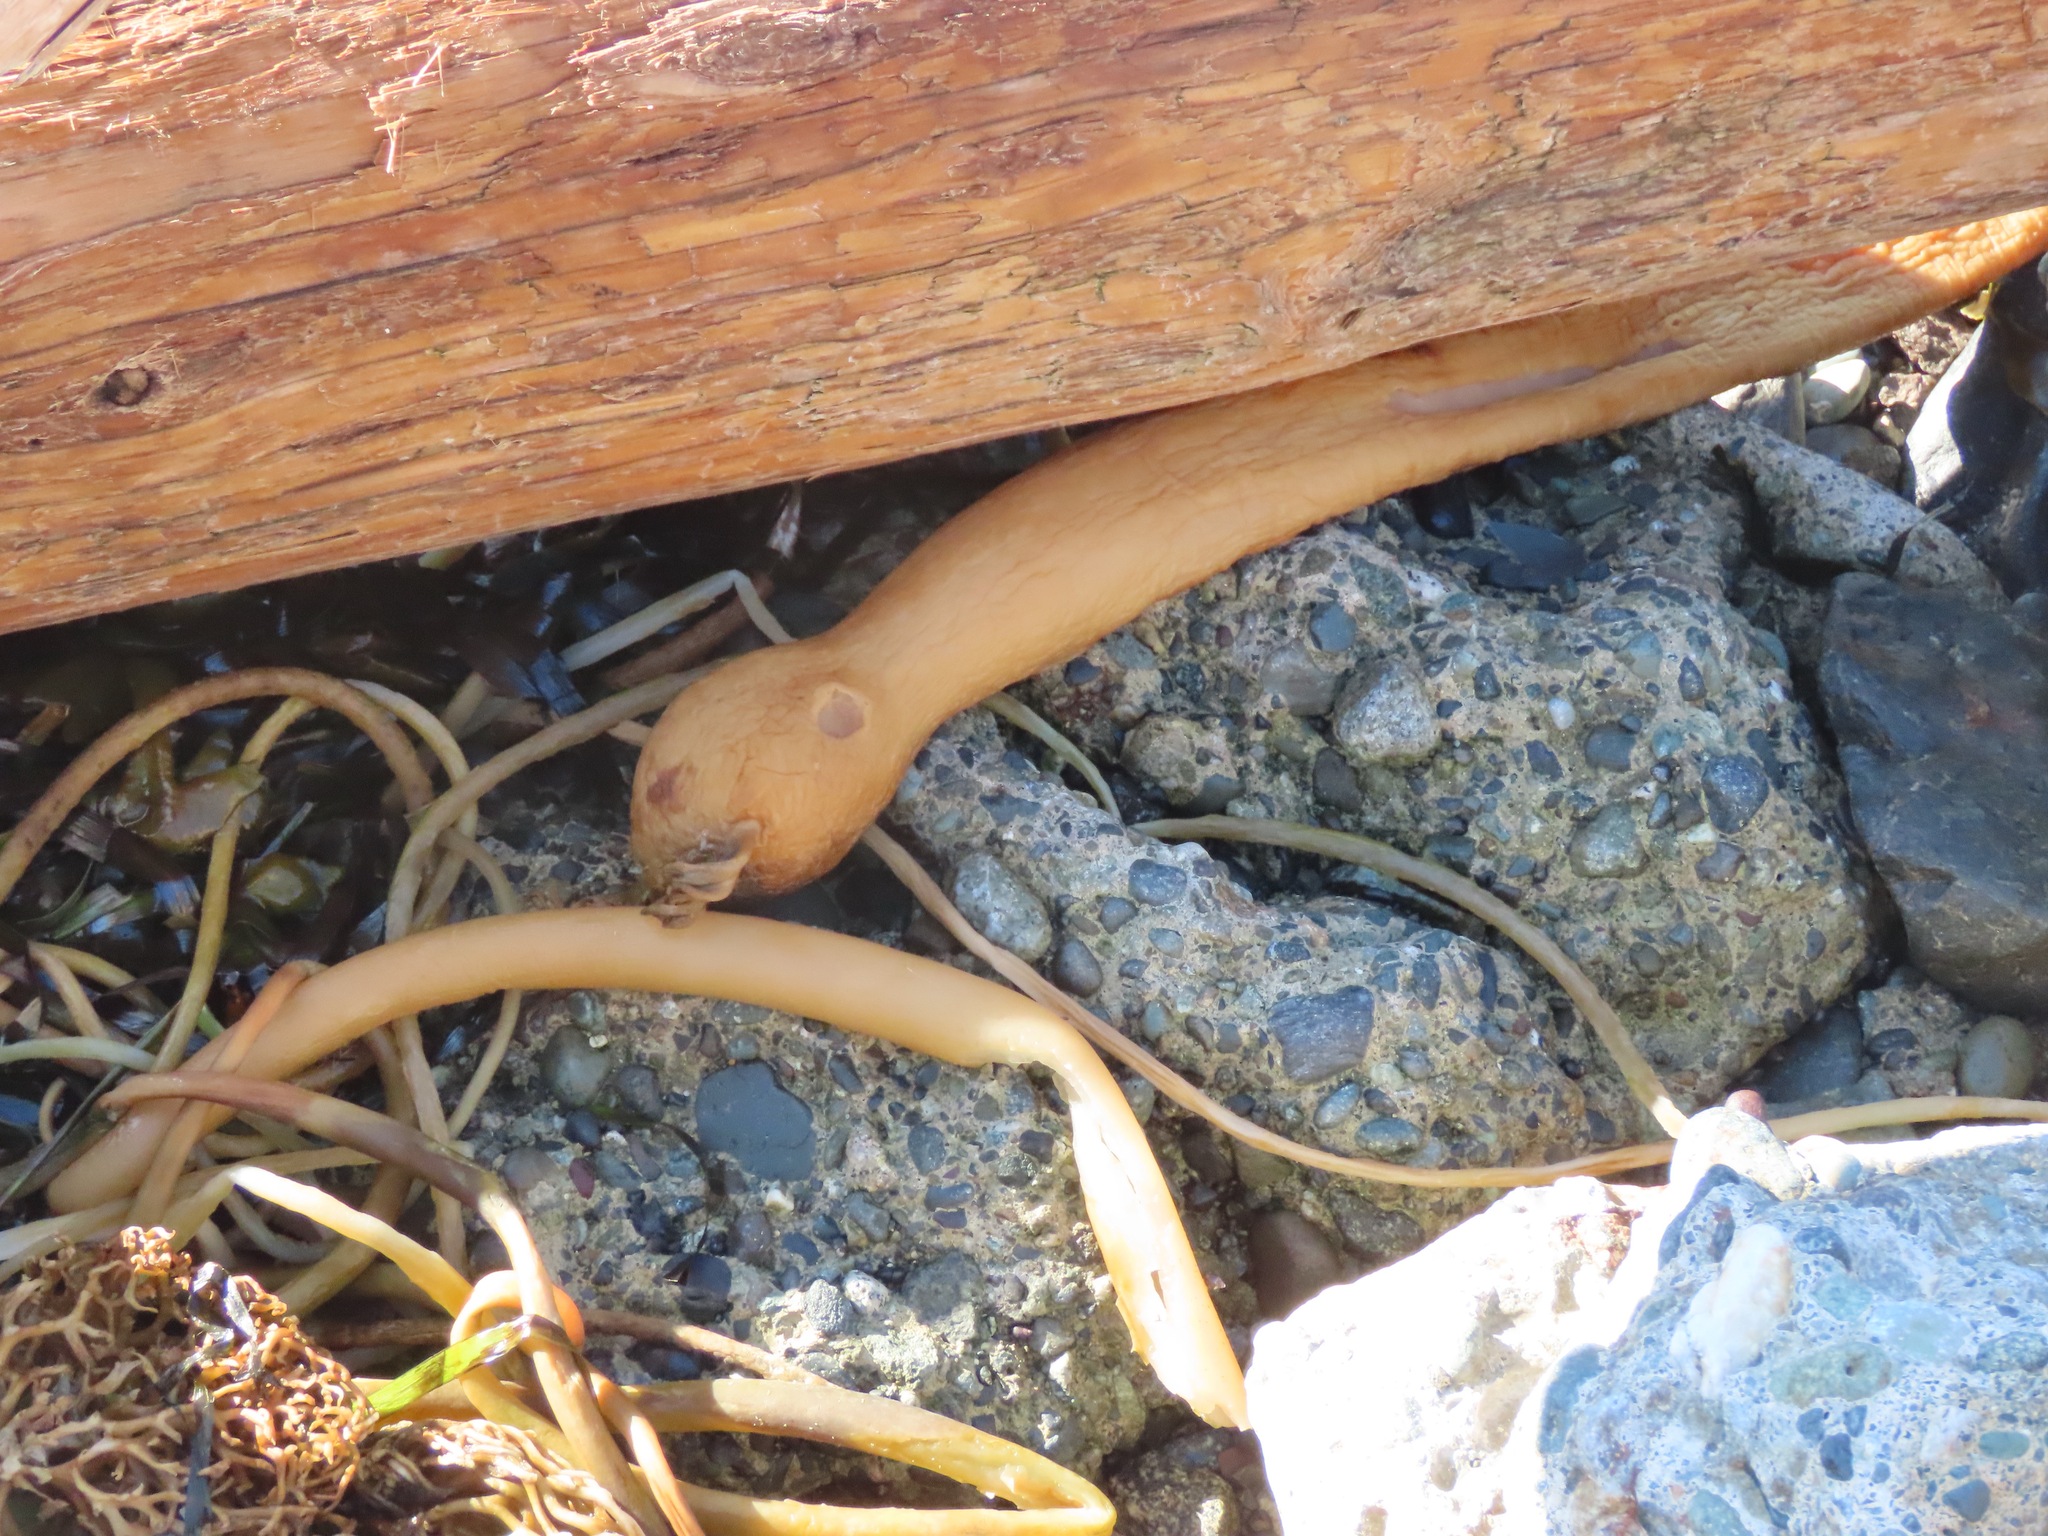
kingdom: Chromista
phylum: Ochrophyta
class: Phaeophyceae
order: Laminariales
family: Laminariaceae
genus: Nereocystis
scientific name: Nereocystis luetkeana
